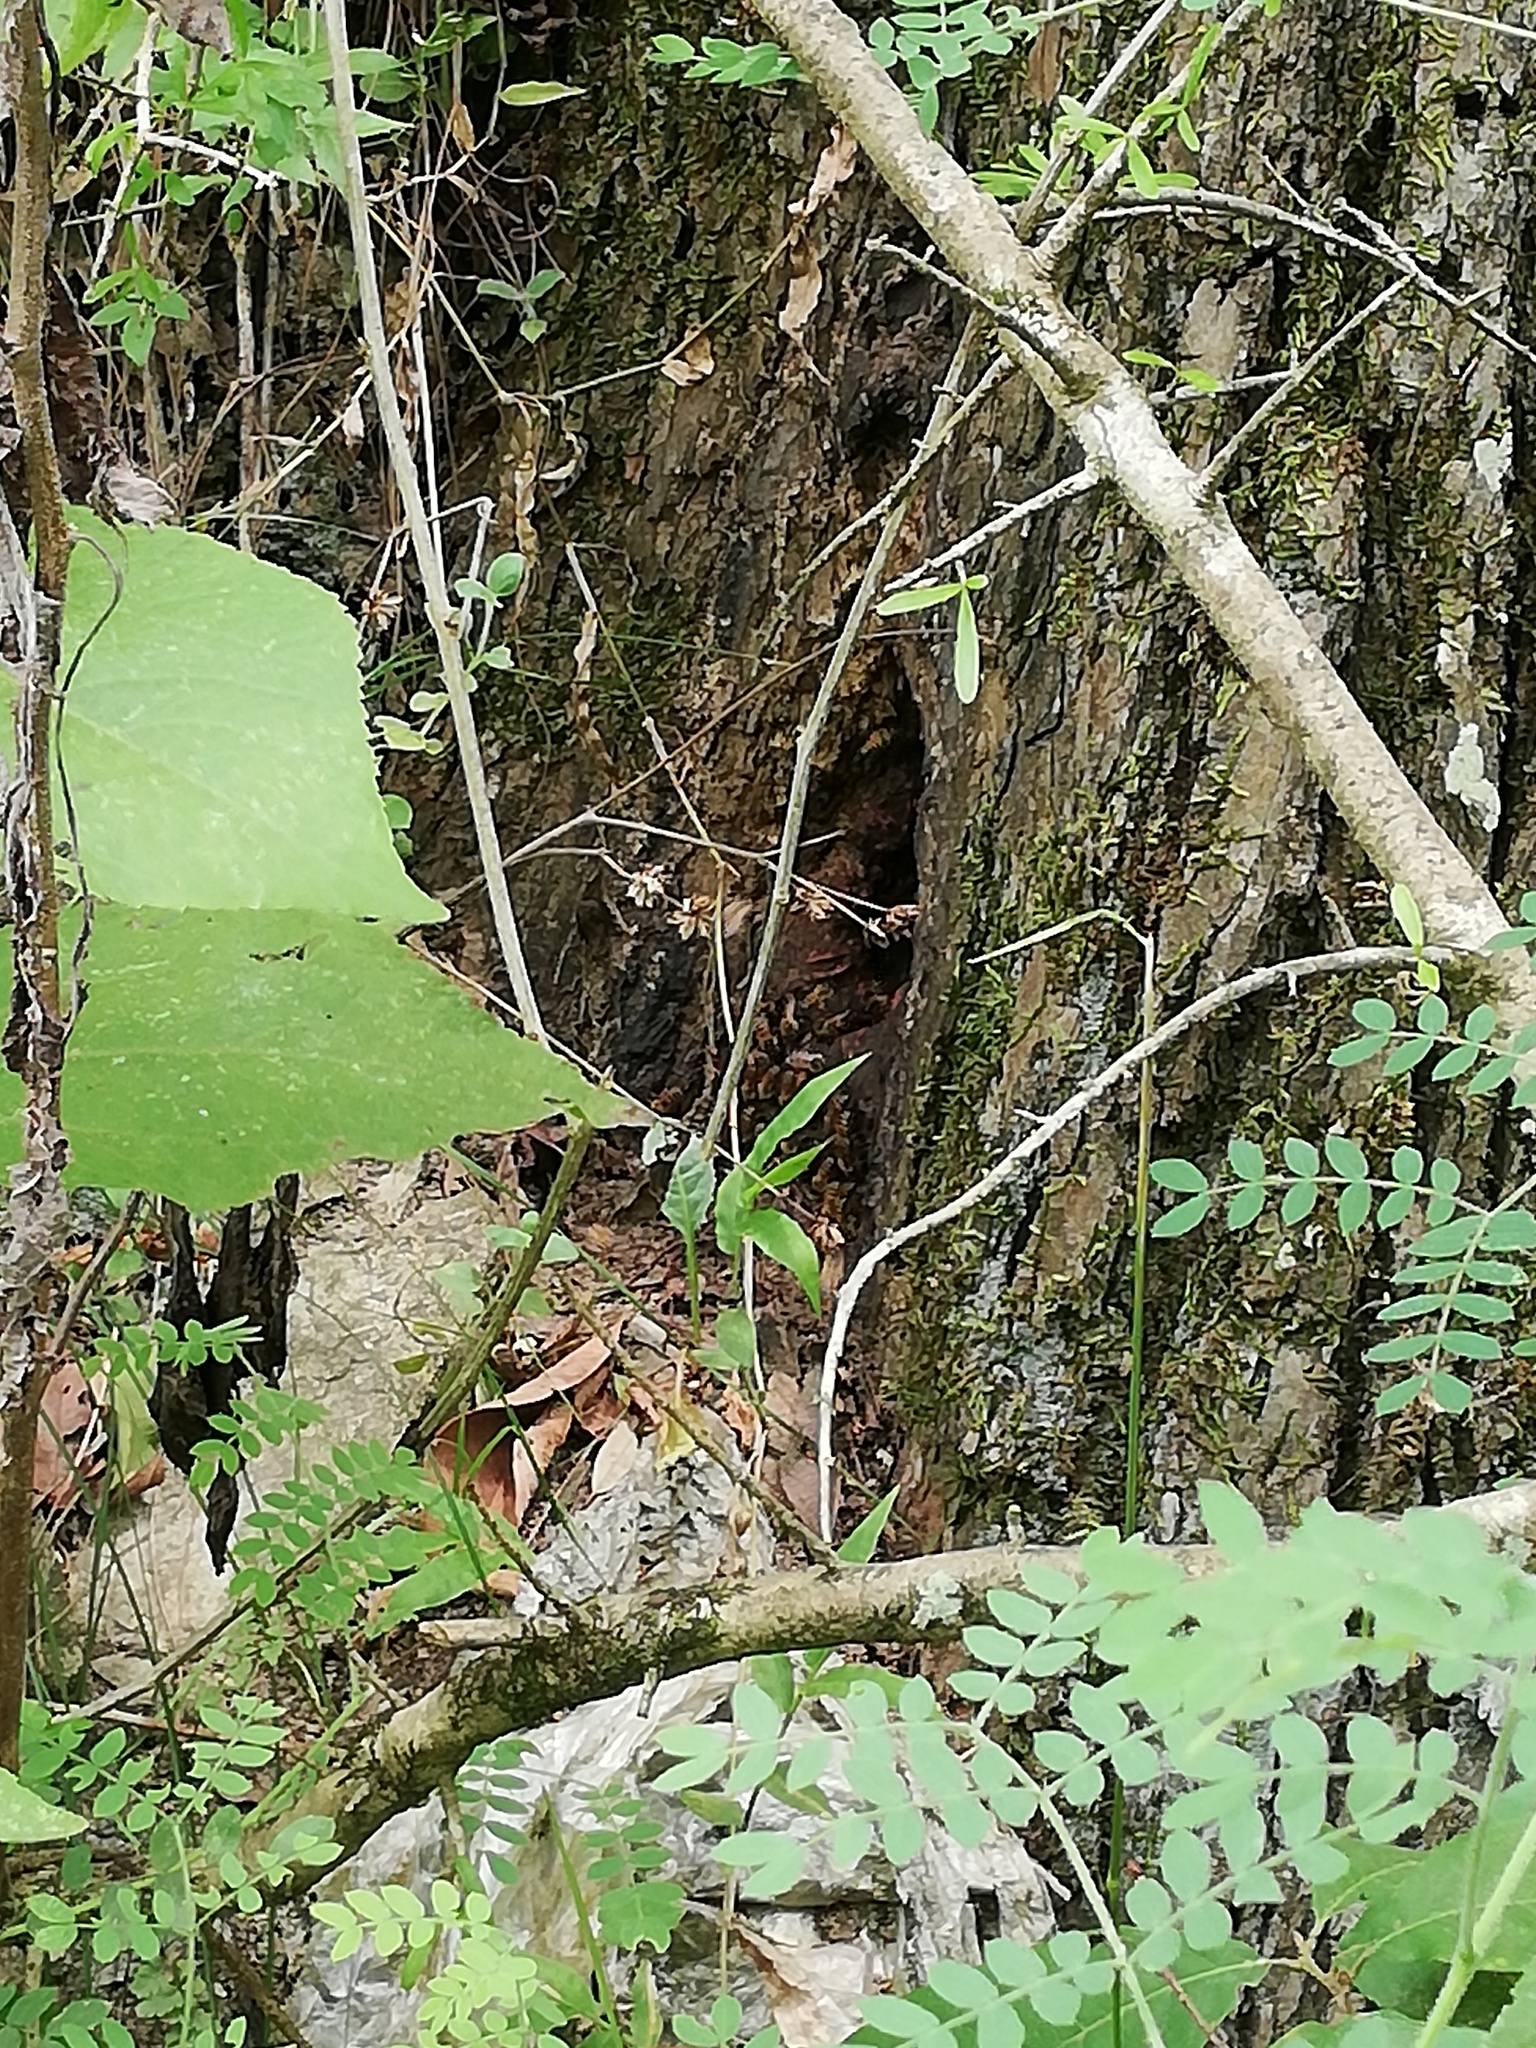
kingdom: Animalia
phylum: Arthropoda
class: Insecta
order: Hymenoptera
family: Apidae
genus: Apis
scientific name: Apis mellifera
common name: Honey bee
